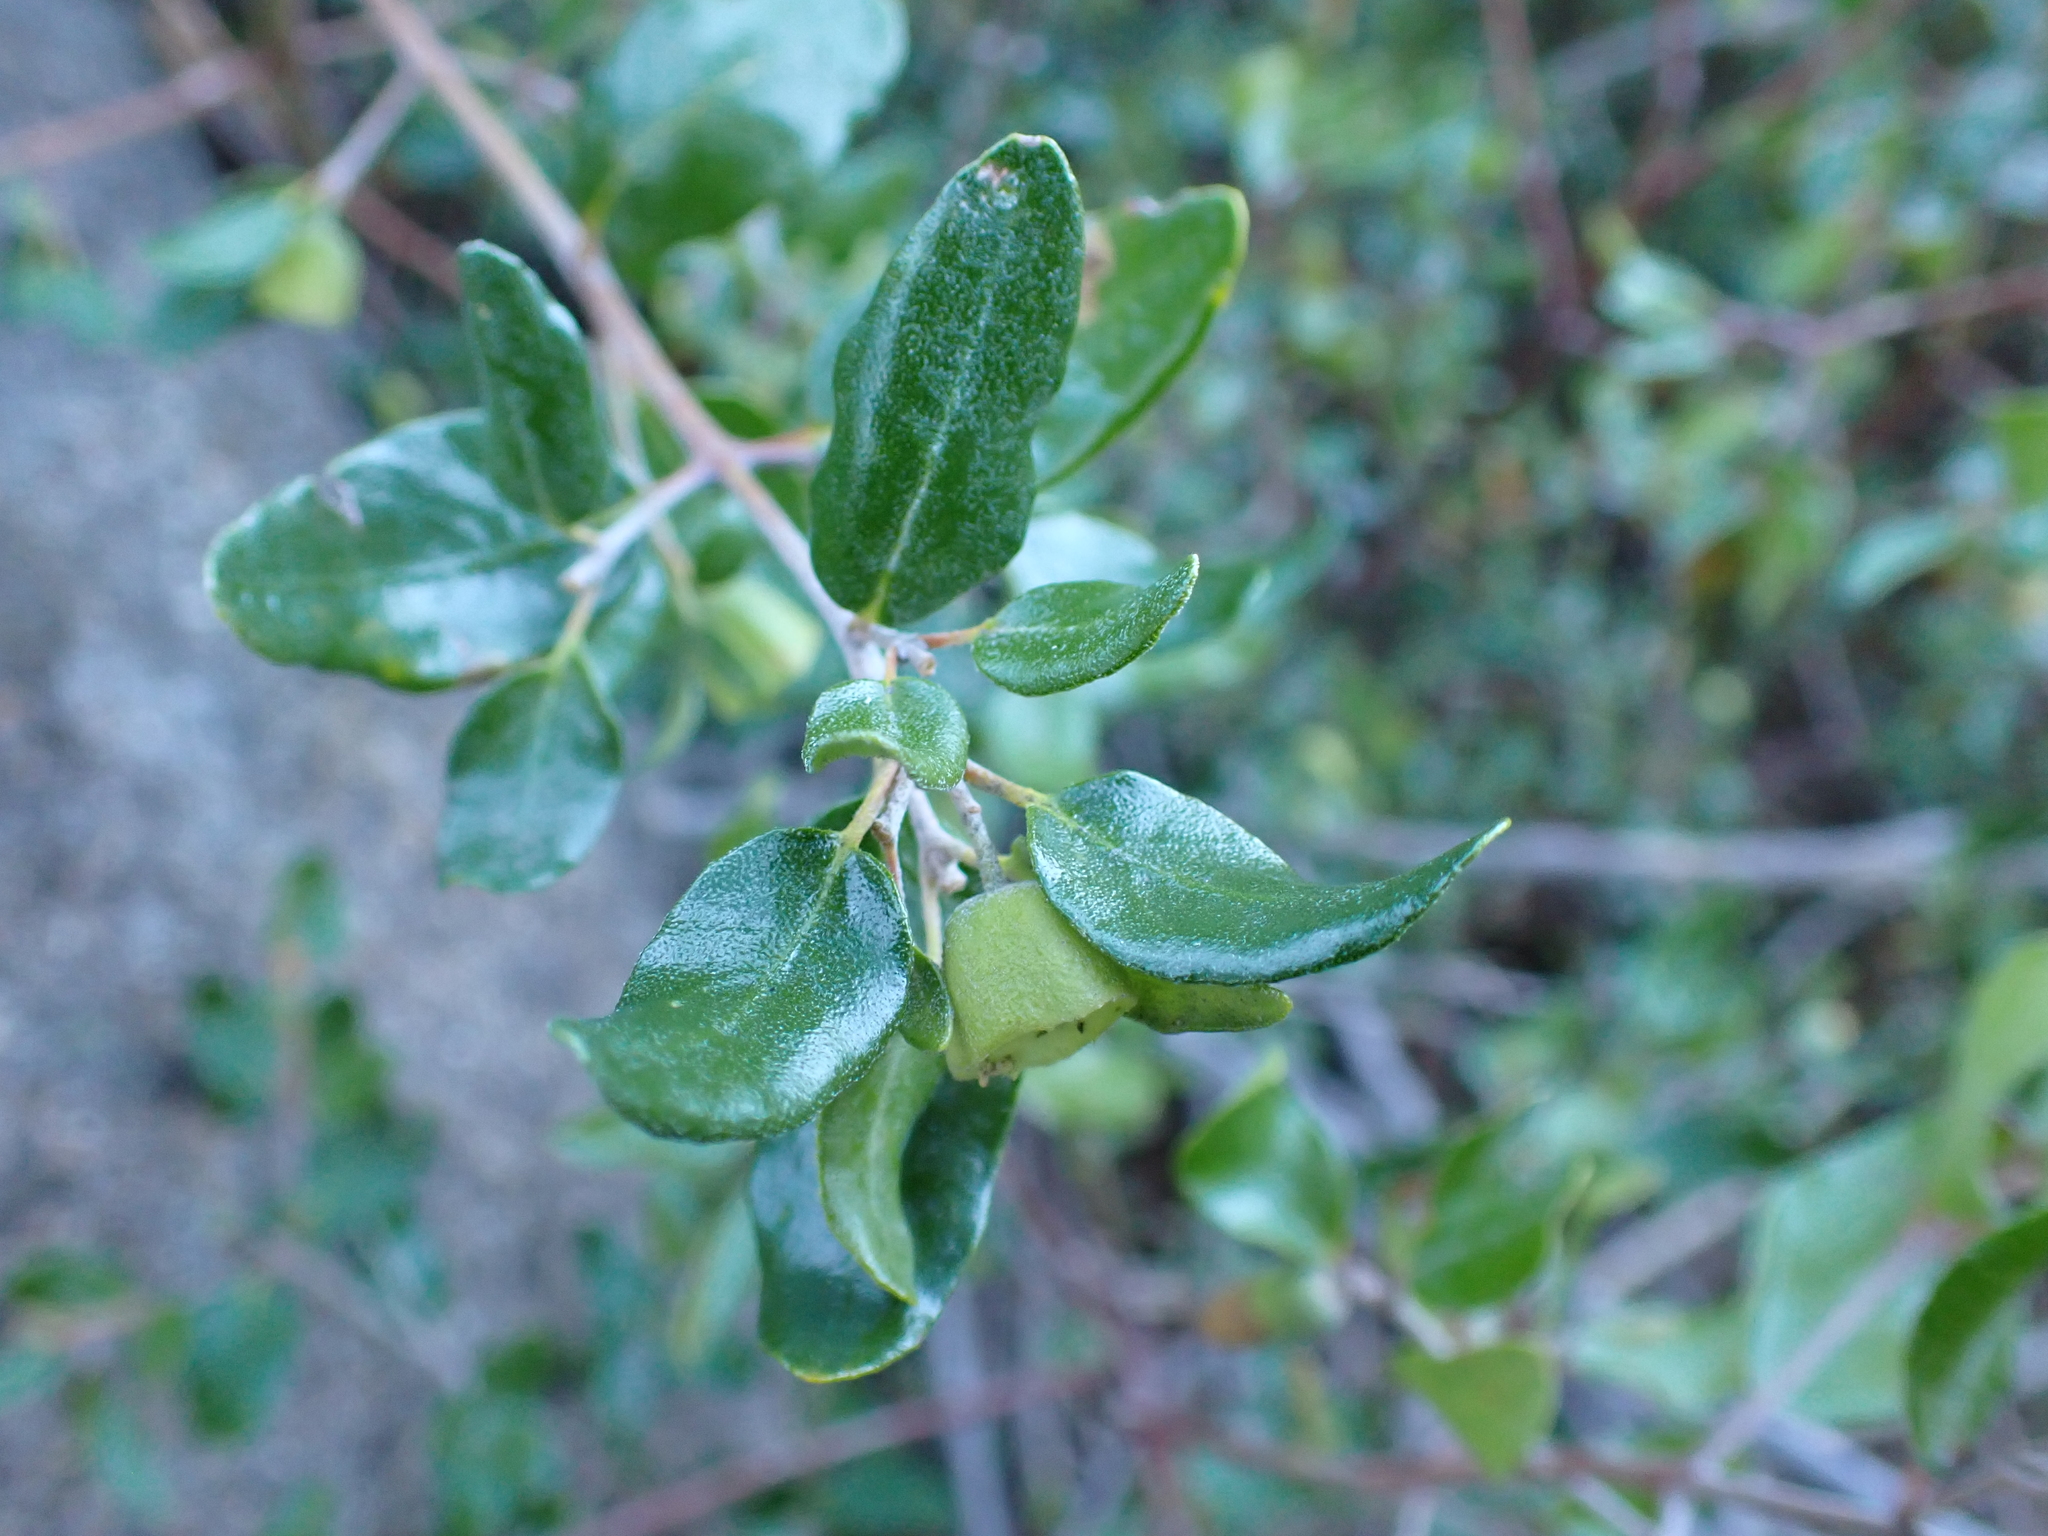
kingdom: Plantae
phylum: Tracheophyta
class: Magnoliopsida
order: Sapindales
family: Rutaceae
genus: Correa
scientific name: Correa glabra
